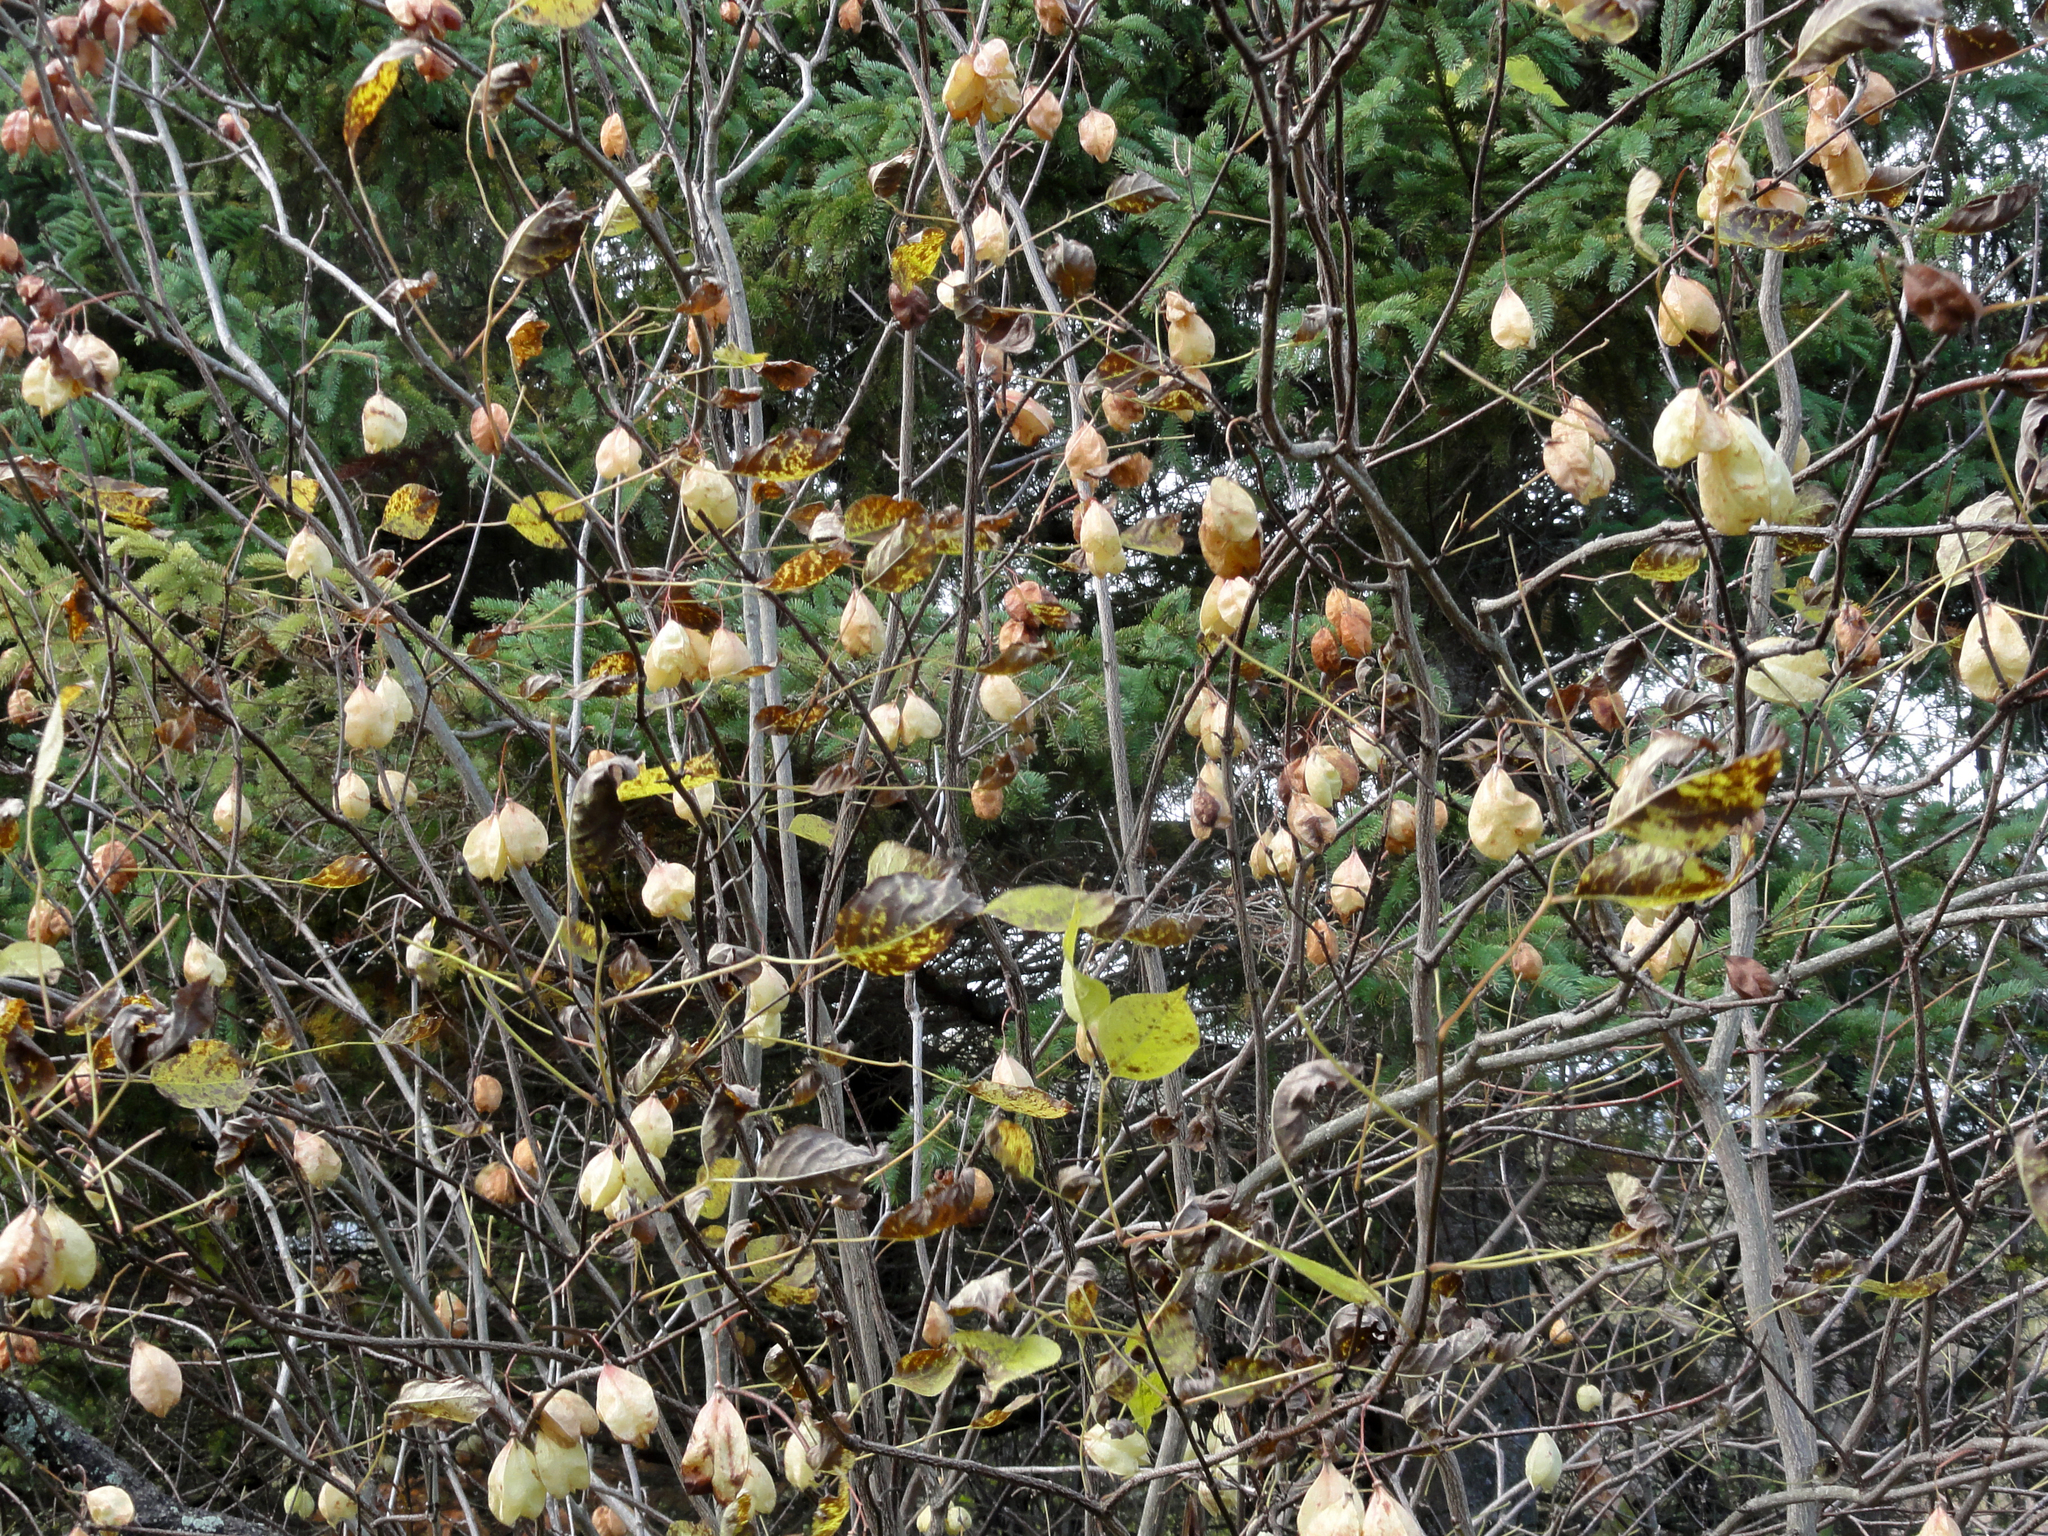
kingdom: Plantae
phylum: Tracheophyta
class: Magnoliopsida
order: Crossosomatales
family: Staphyleaceae
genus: Staphylea
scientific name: Staphylea trifolia
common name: American bladdernut
